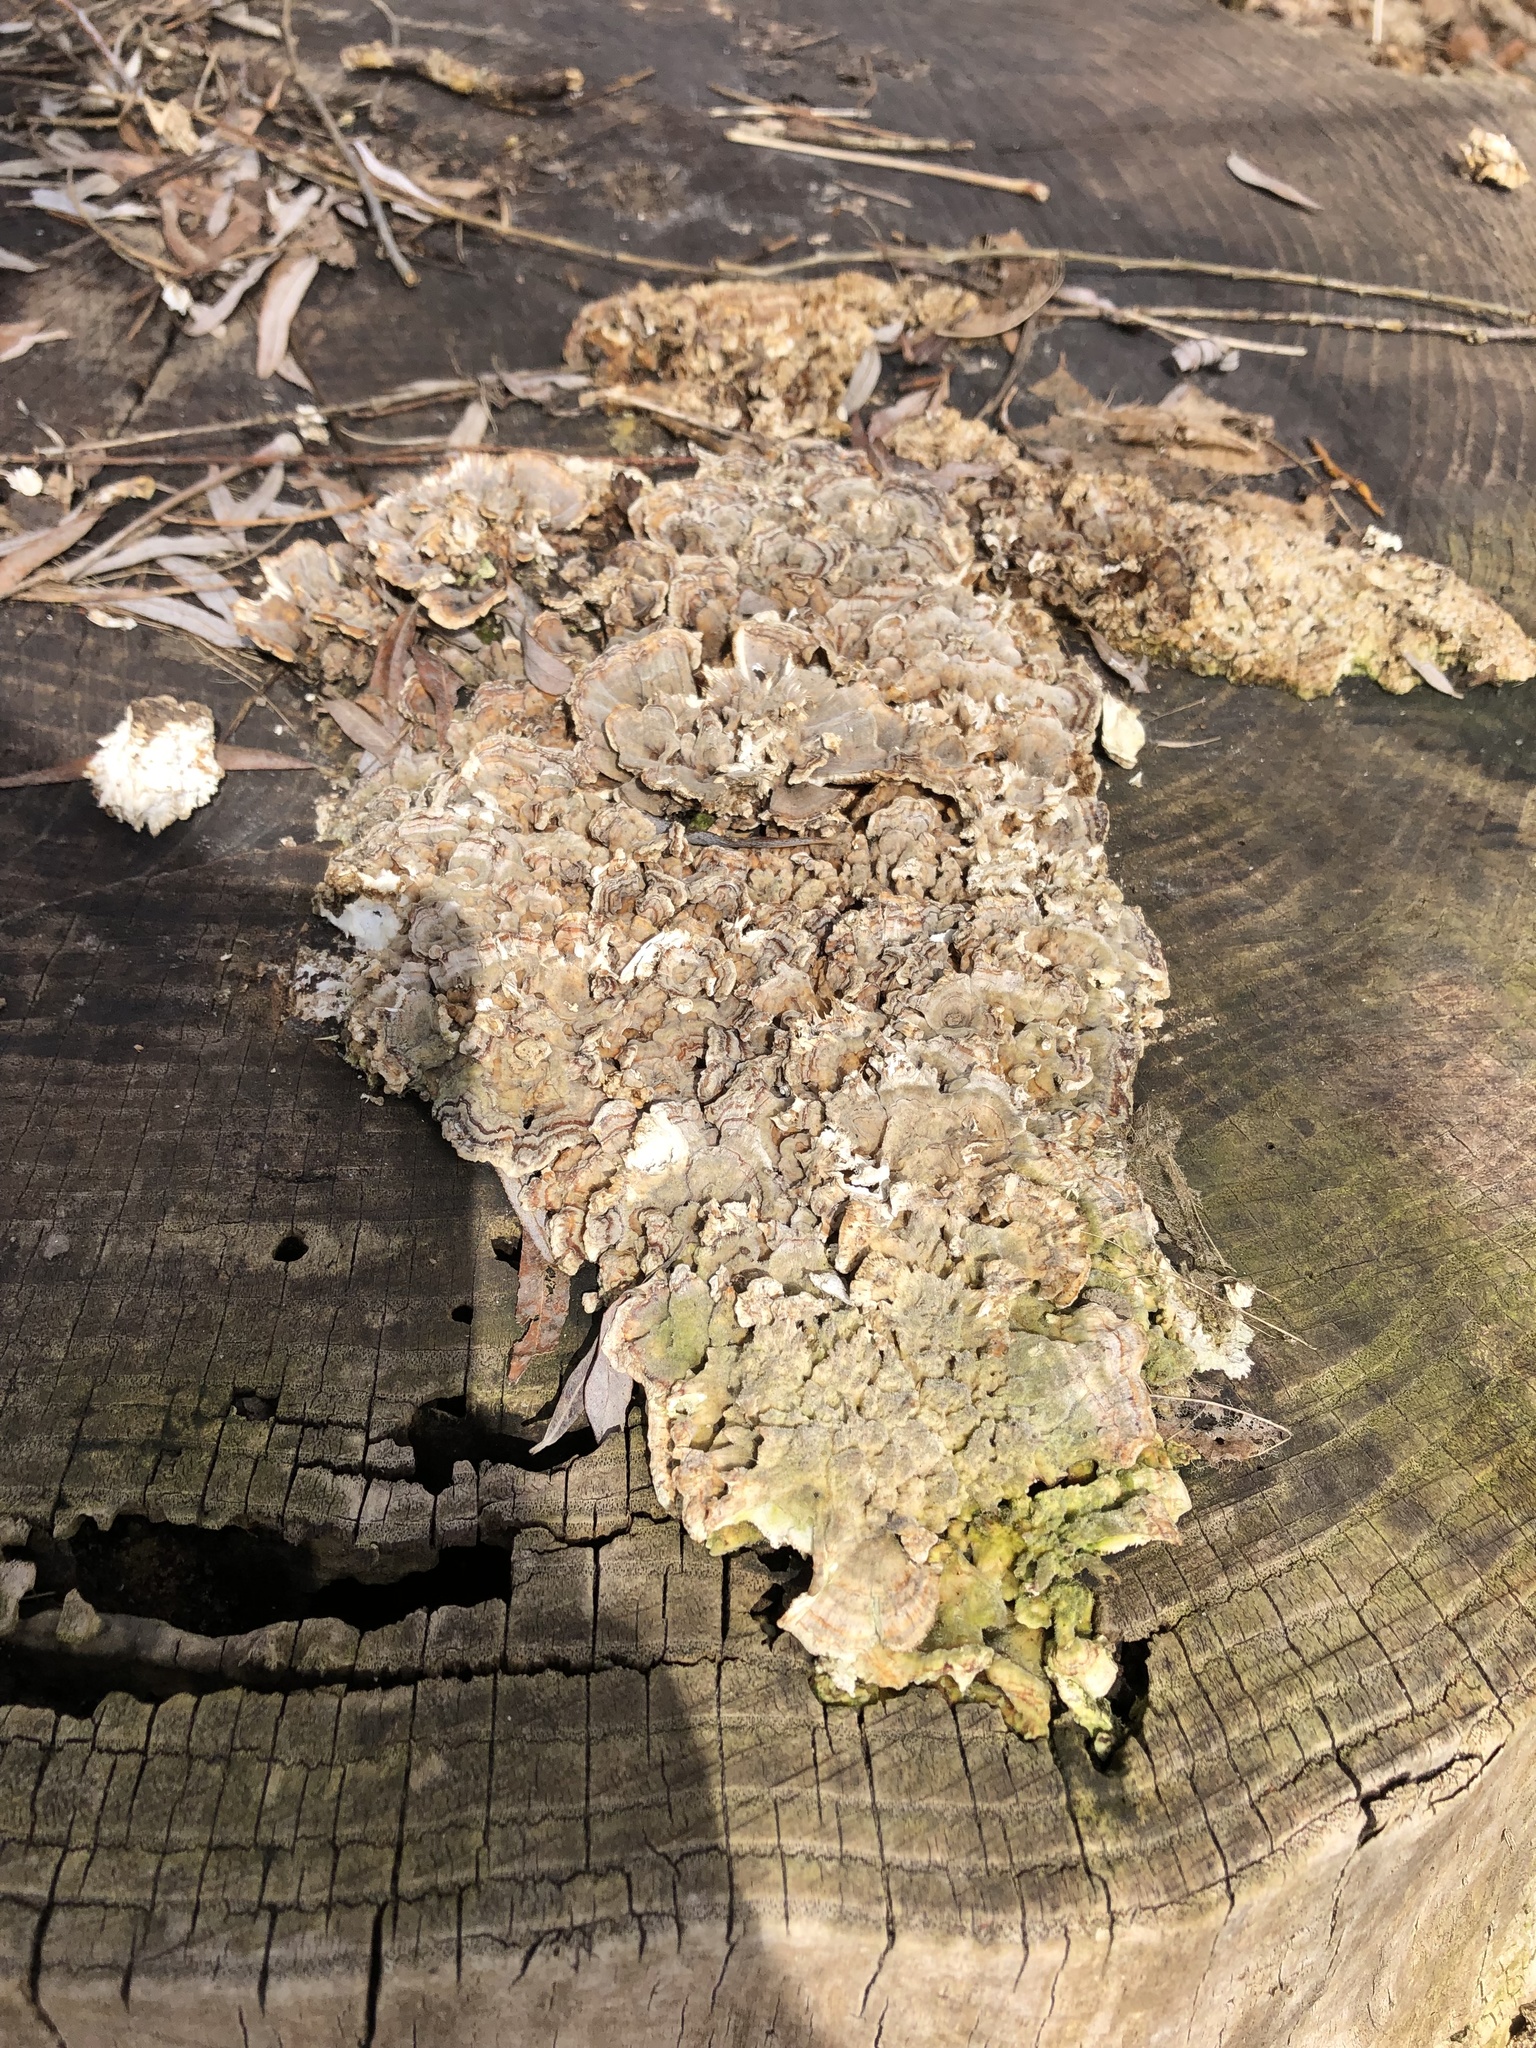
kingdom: Fungi
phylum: Basidiomycota
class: Agaricomycetes
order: Polyporales
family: Polyporaceae
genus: Trametes
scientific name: Trametes versicolor
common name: Turkeytail
